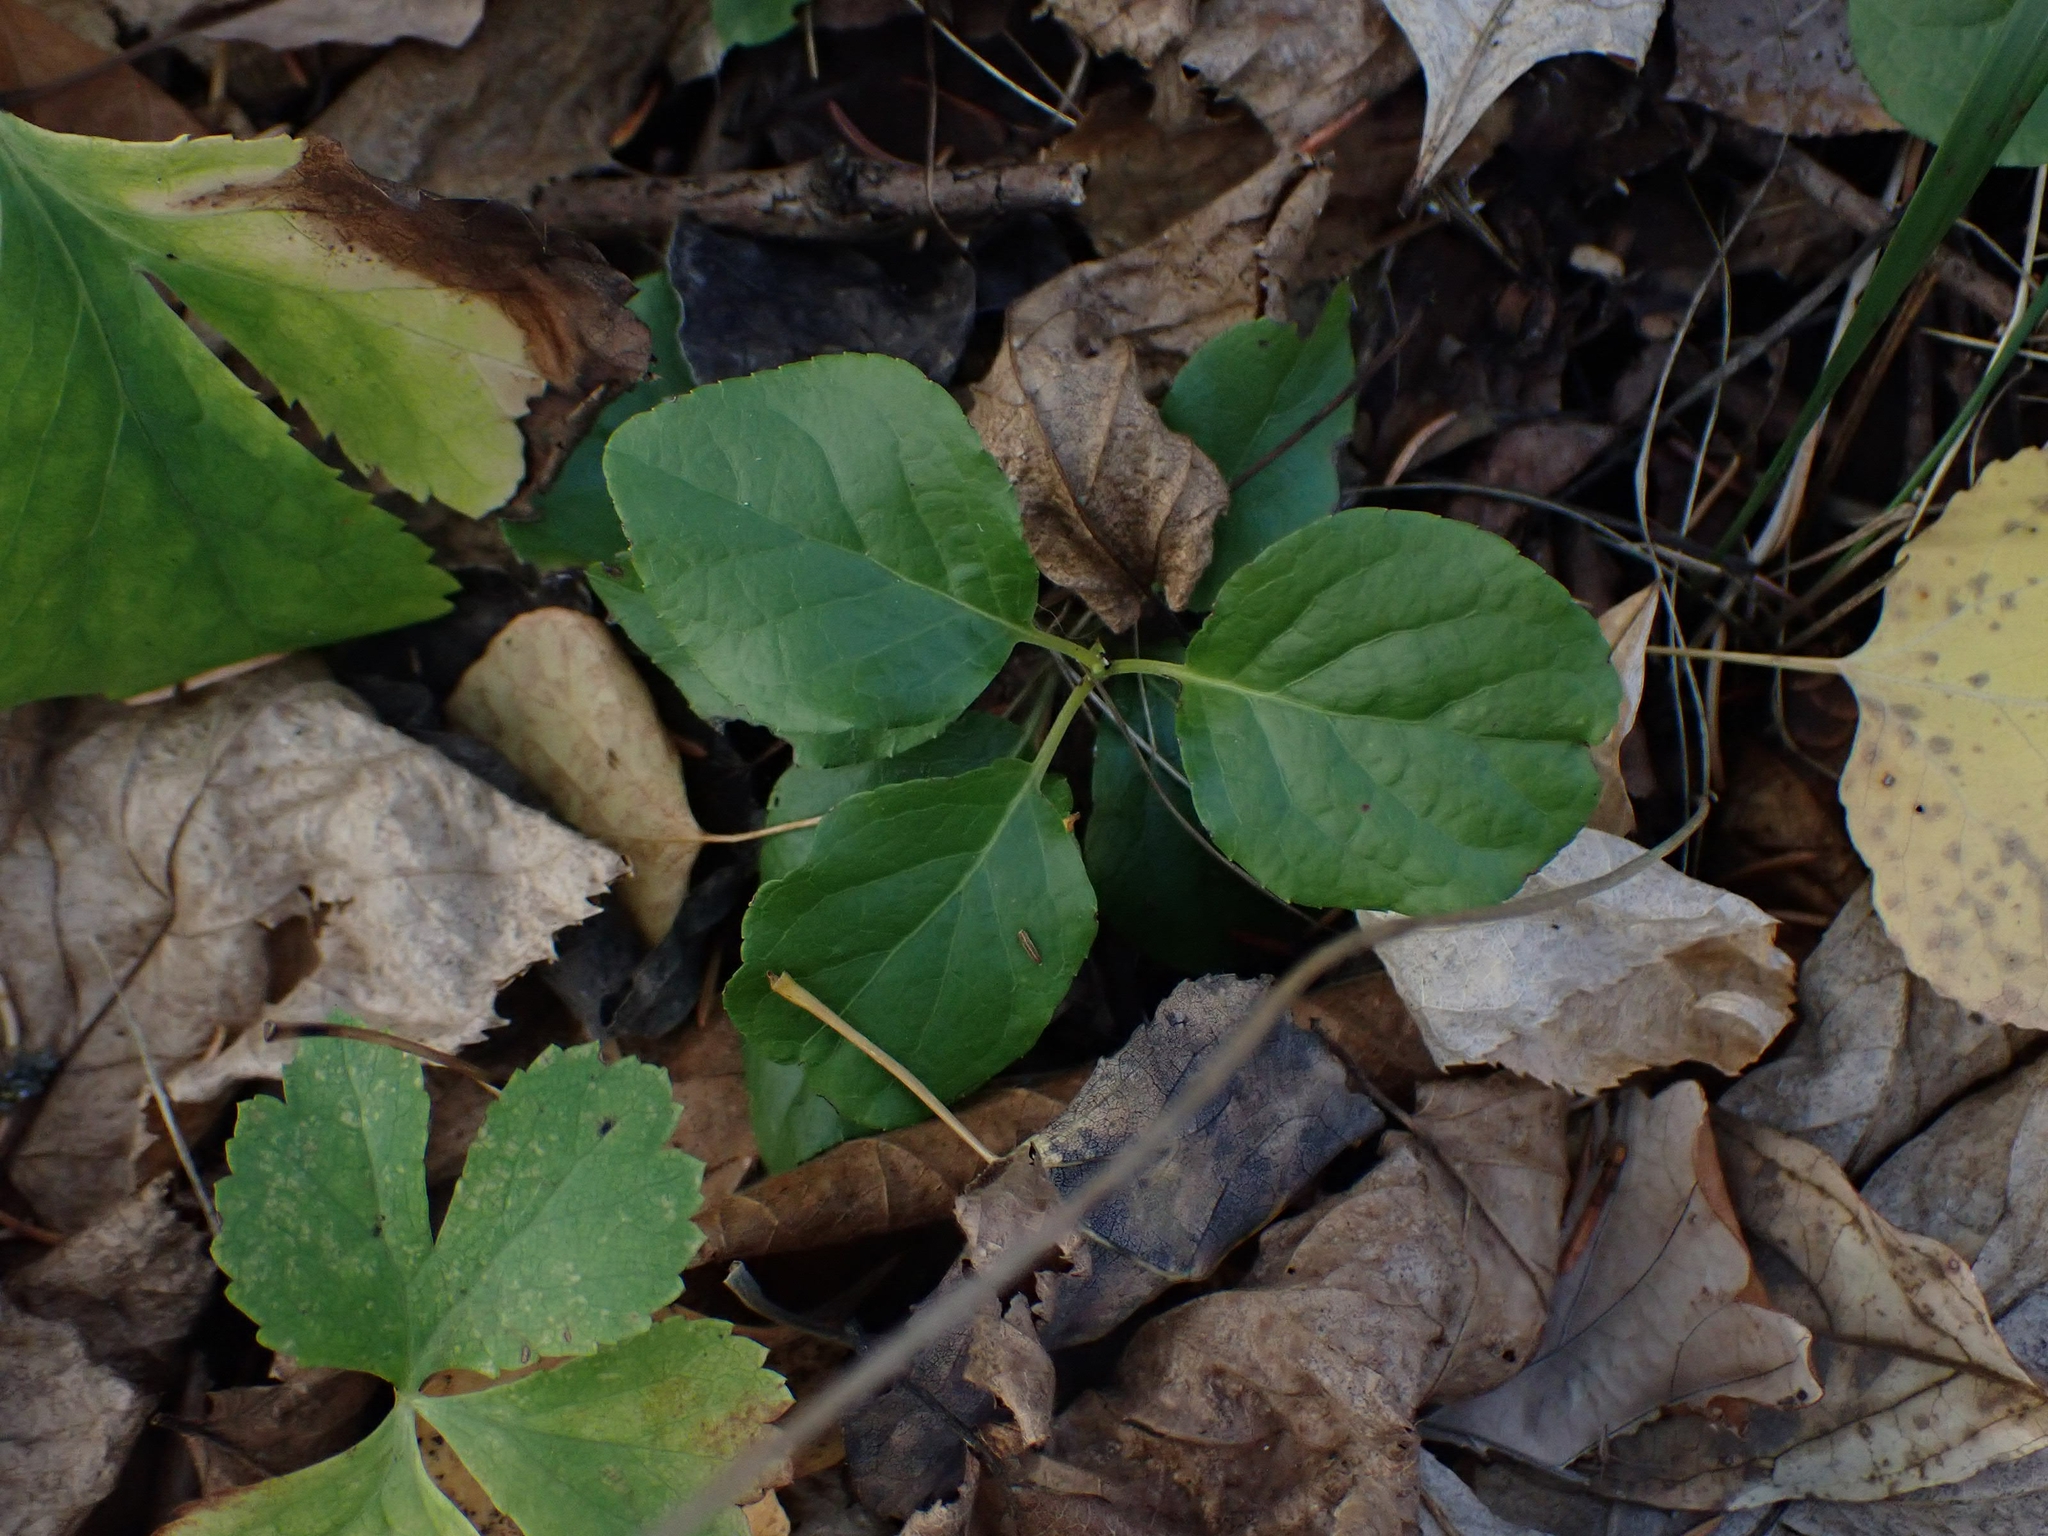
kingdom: Plantae
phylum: Tracheophyta
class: Magnoliopsida
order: Ericales
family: Ericaceae
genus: Orthilia
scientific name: Orthilia secunda
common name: One-sided orthilia
